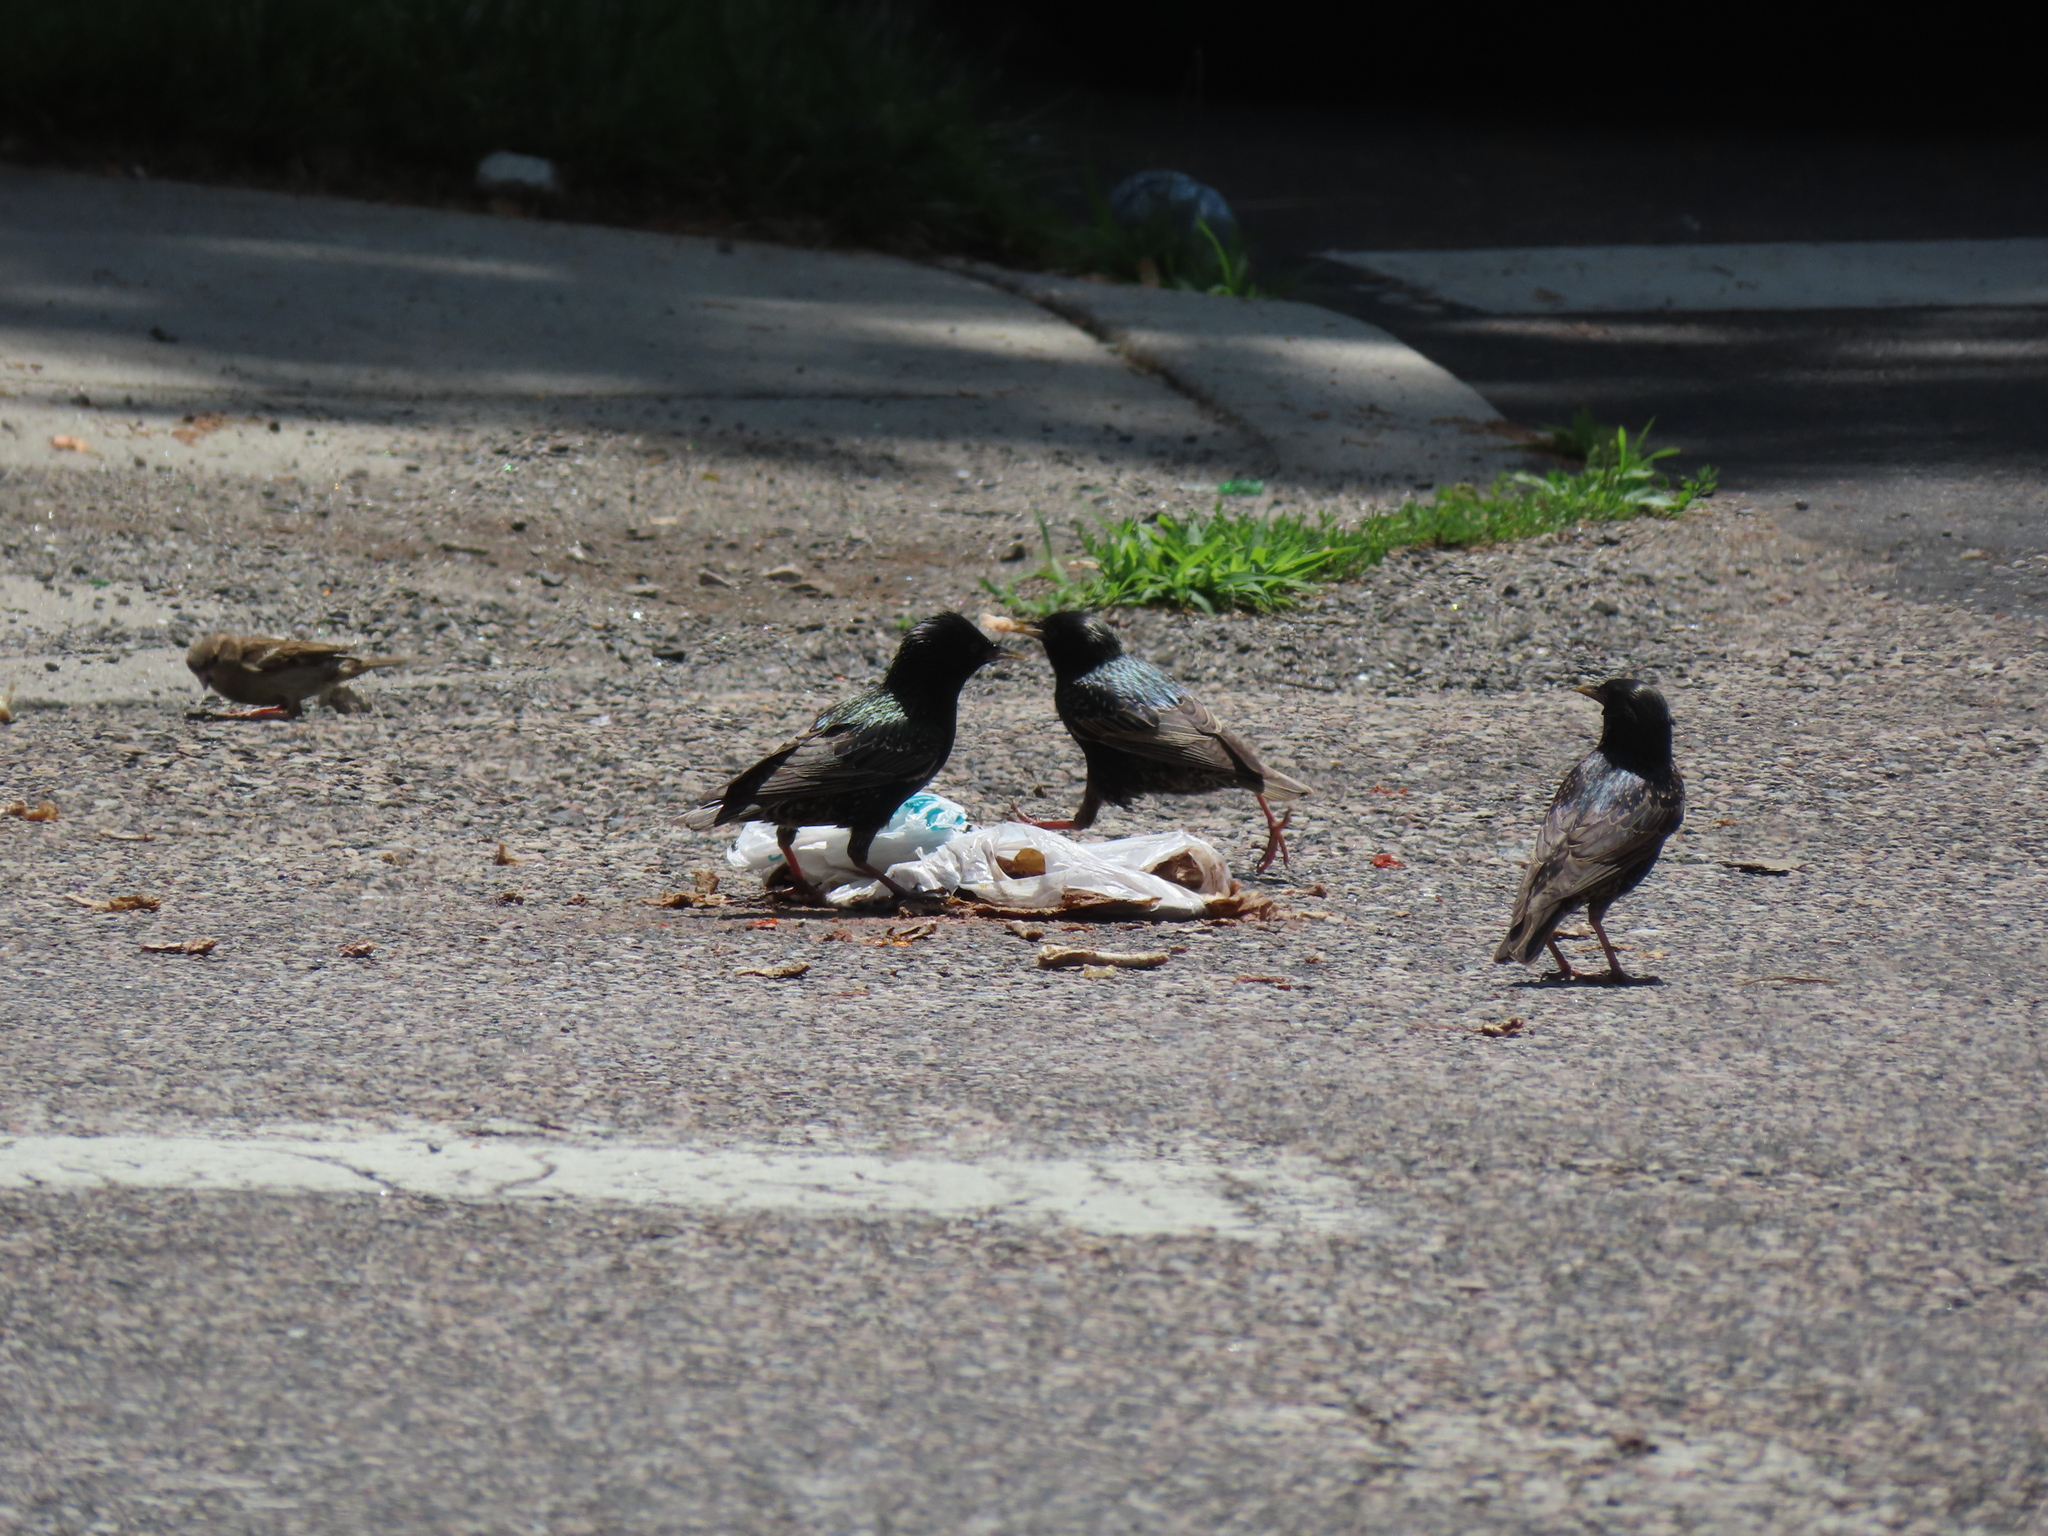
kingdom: Animalia
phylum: Chordata
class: Aves
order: Passeriformes
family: Sturnidae
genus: Sturnus
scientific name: Sturnus vulgaris
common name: Common starling
